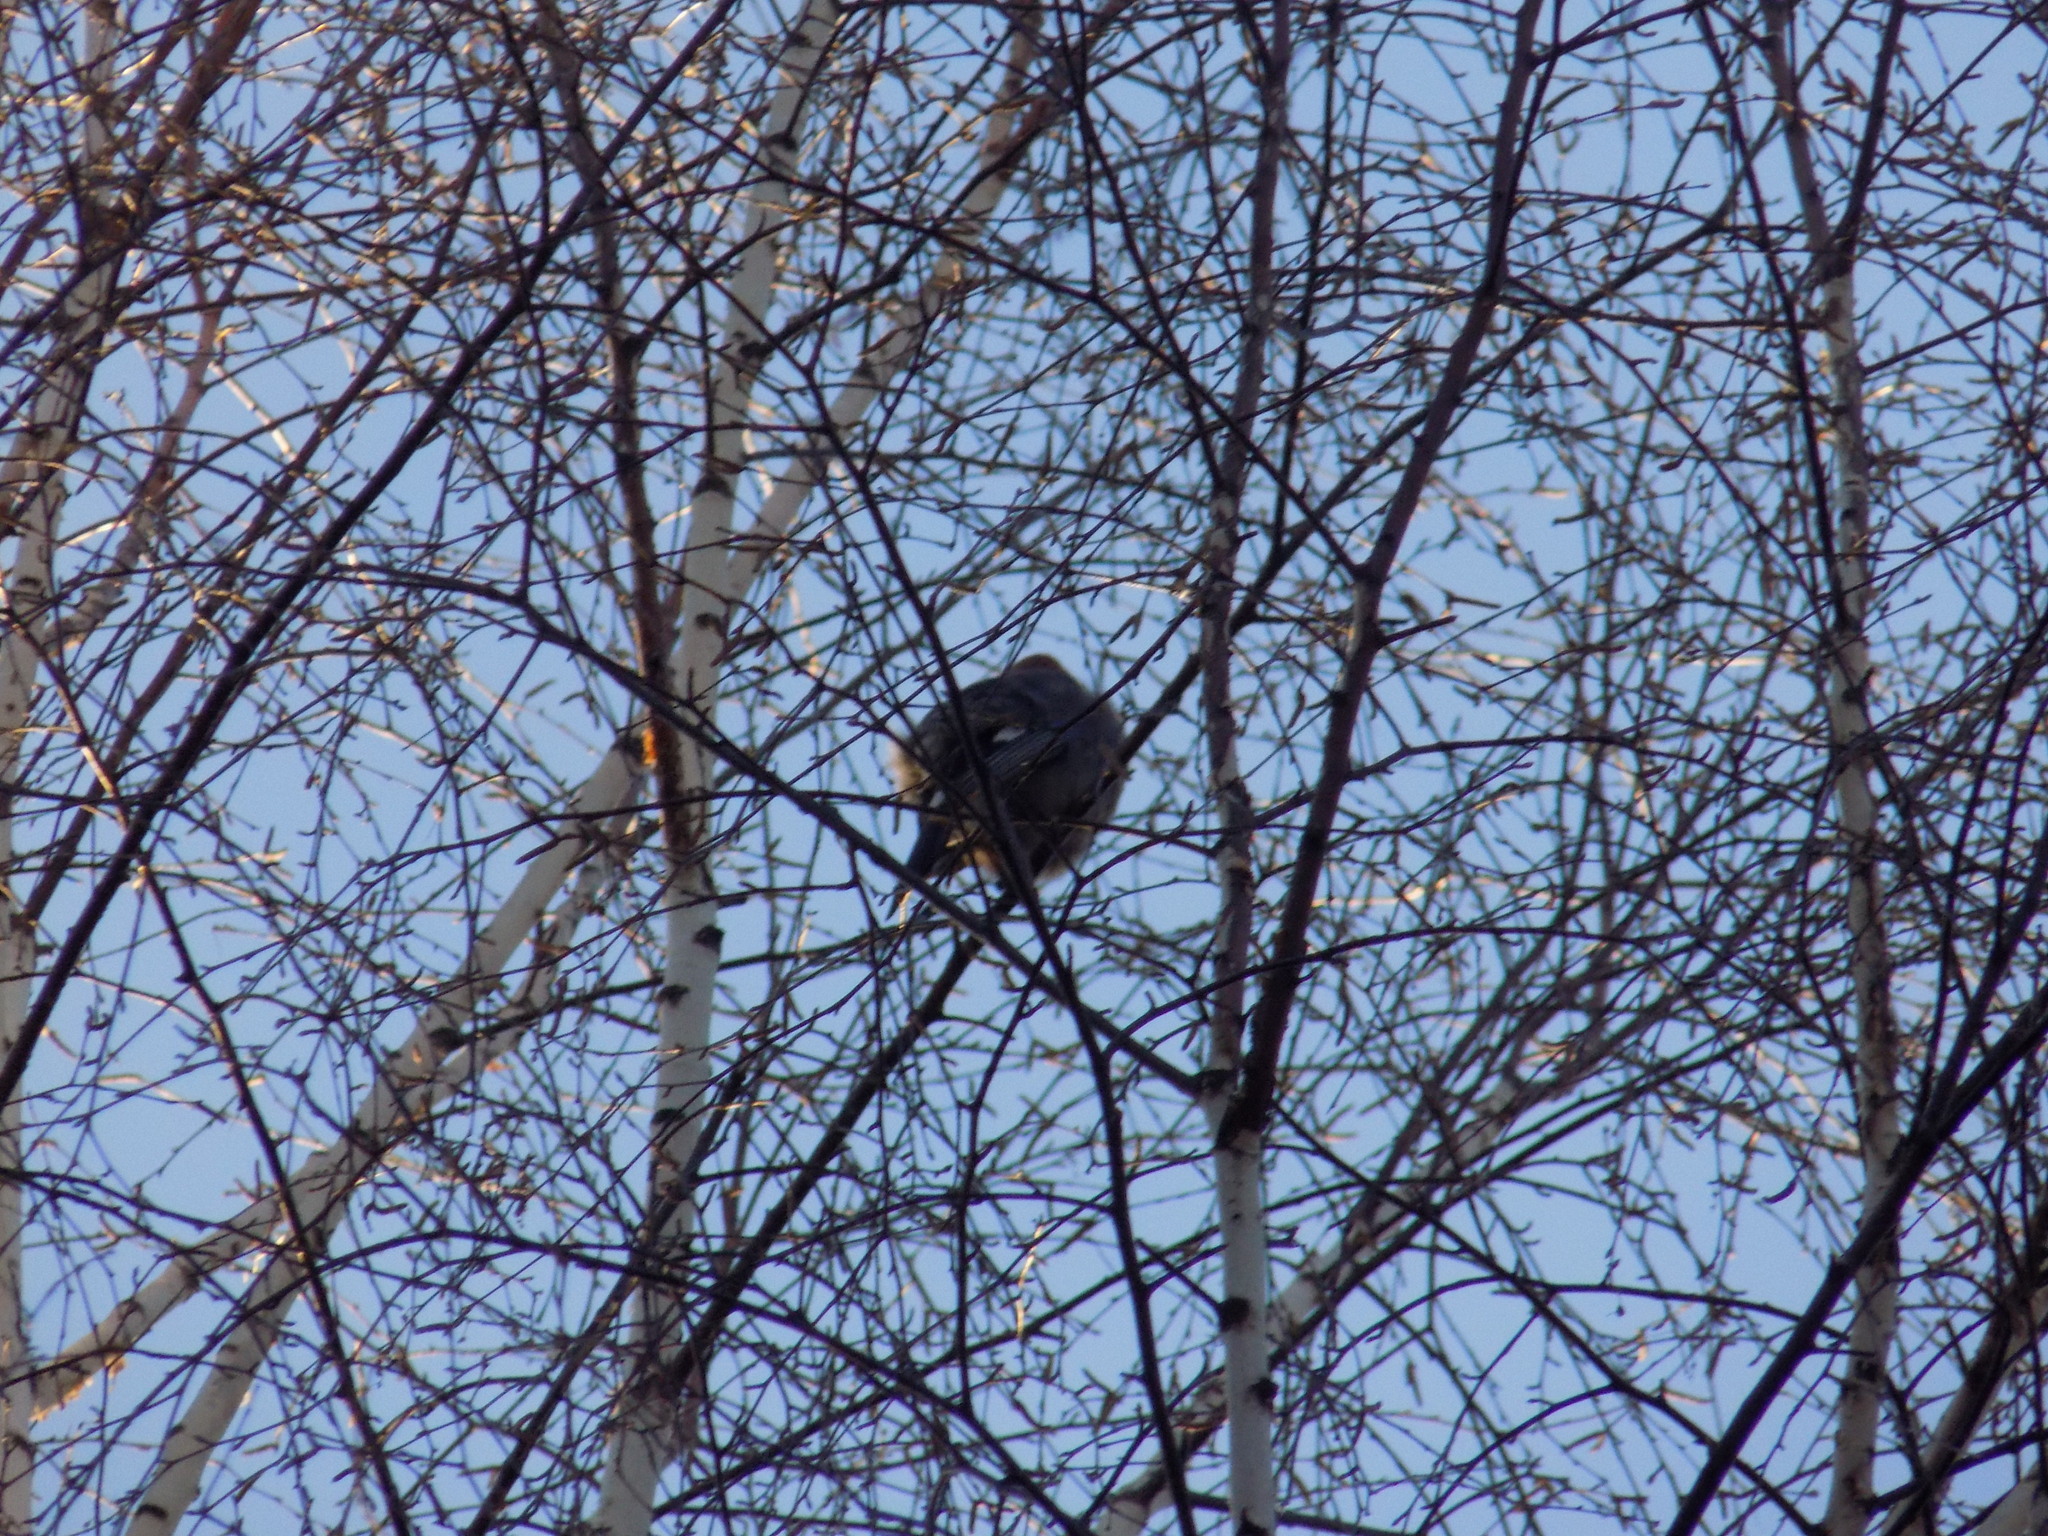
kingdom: Animalia
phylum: Chordata
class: Aves
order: Passeriformes
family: Corvidae
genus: Garrulus
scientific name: Garrulus glandarius
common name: Eurasian jay
